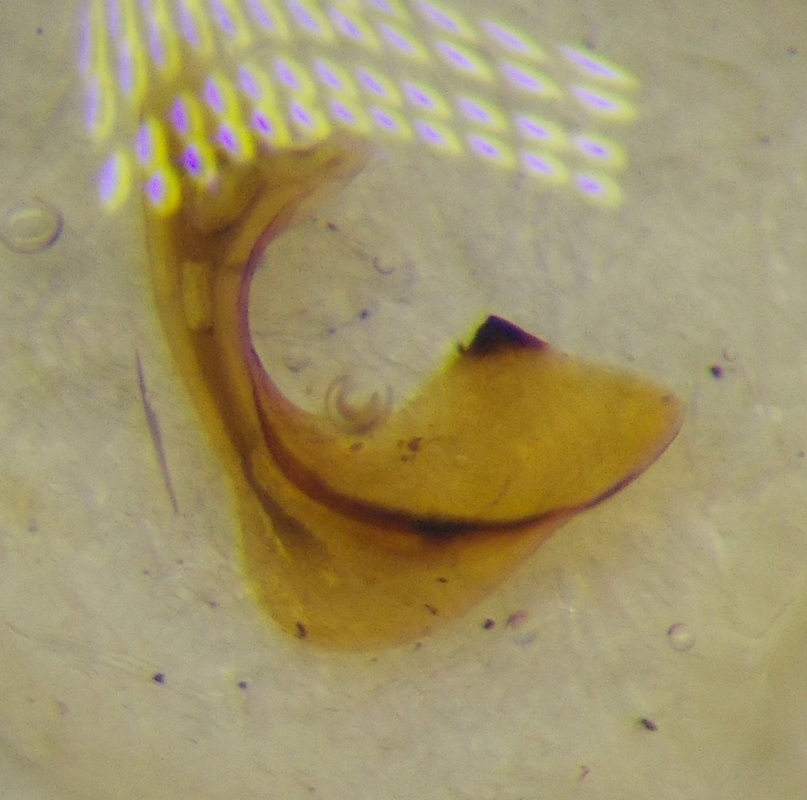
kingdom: Animalia
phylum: Arthropoda
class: Insecta
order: Hemiptera
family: Pentatomidae
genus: Carpocoris
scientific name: Carpocoris purpureipennis
